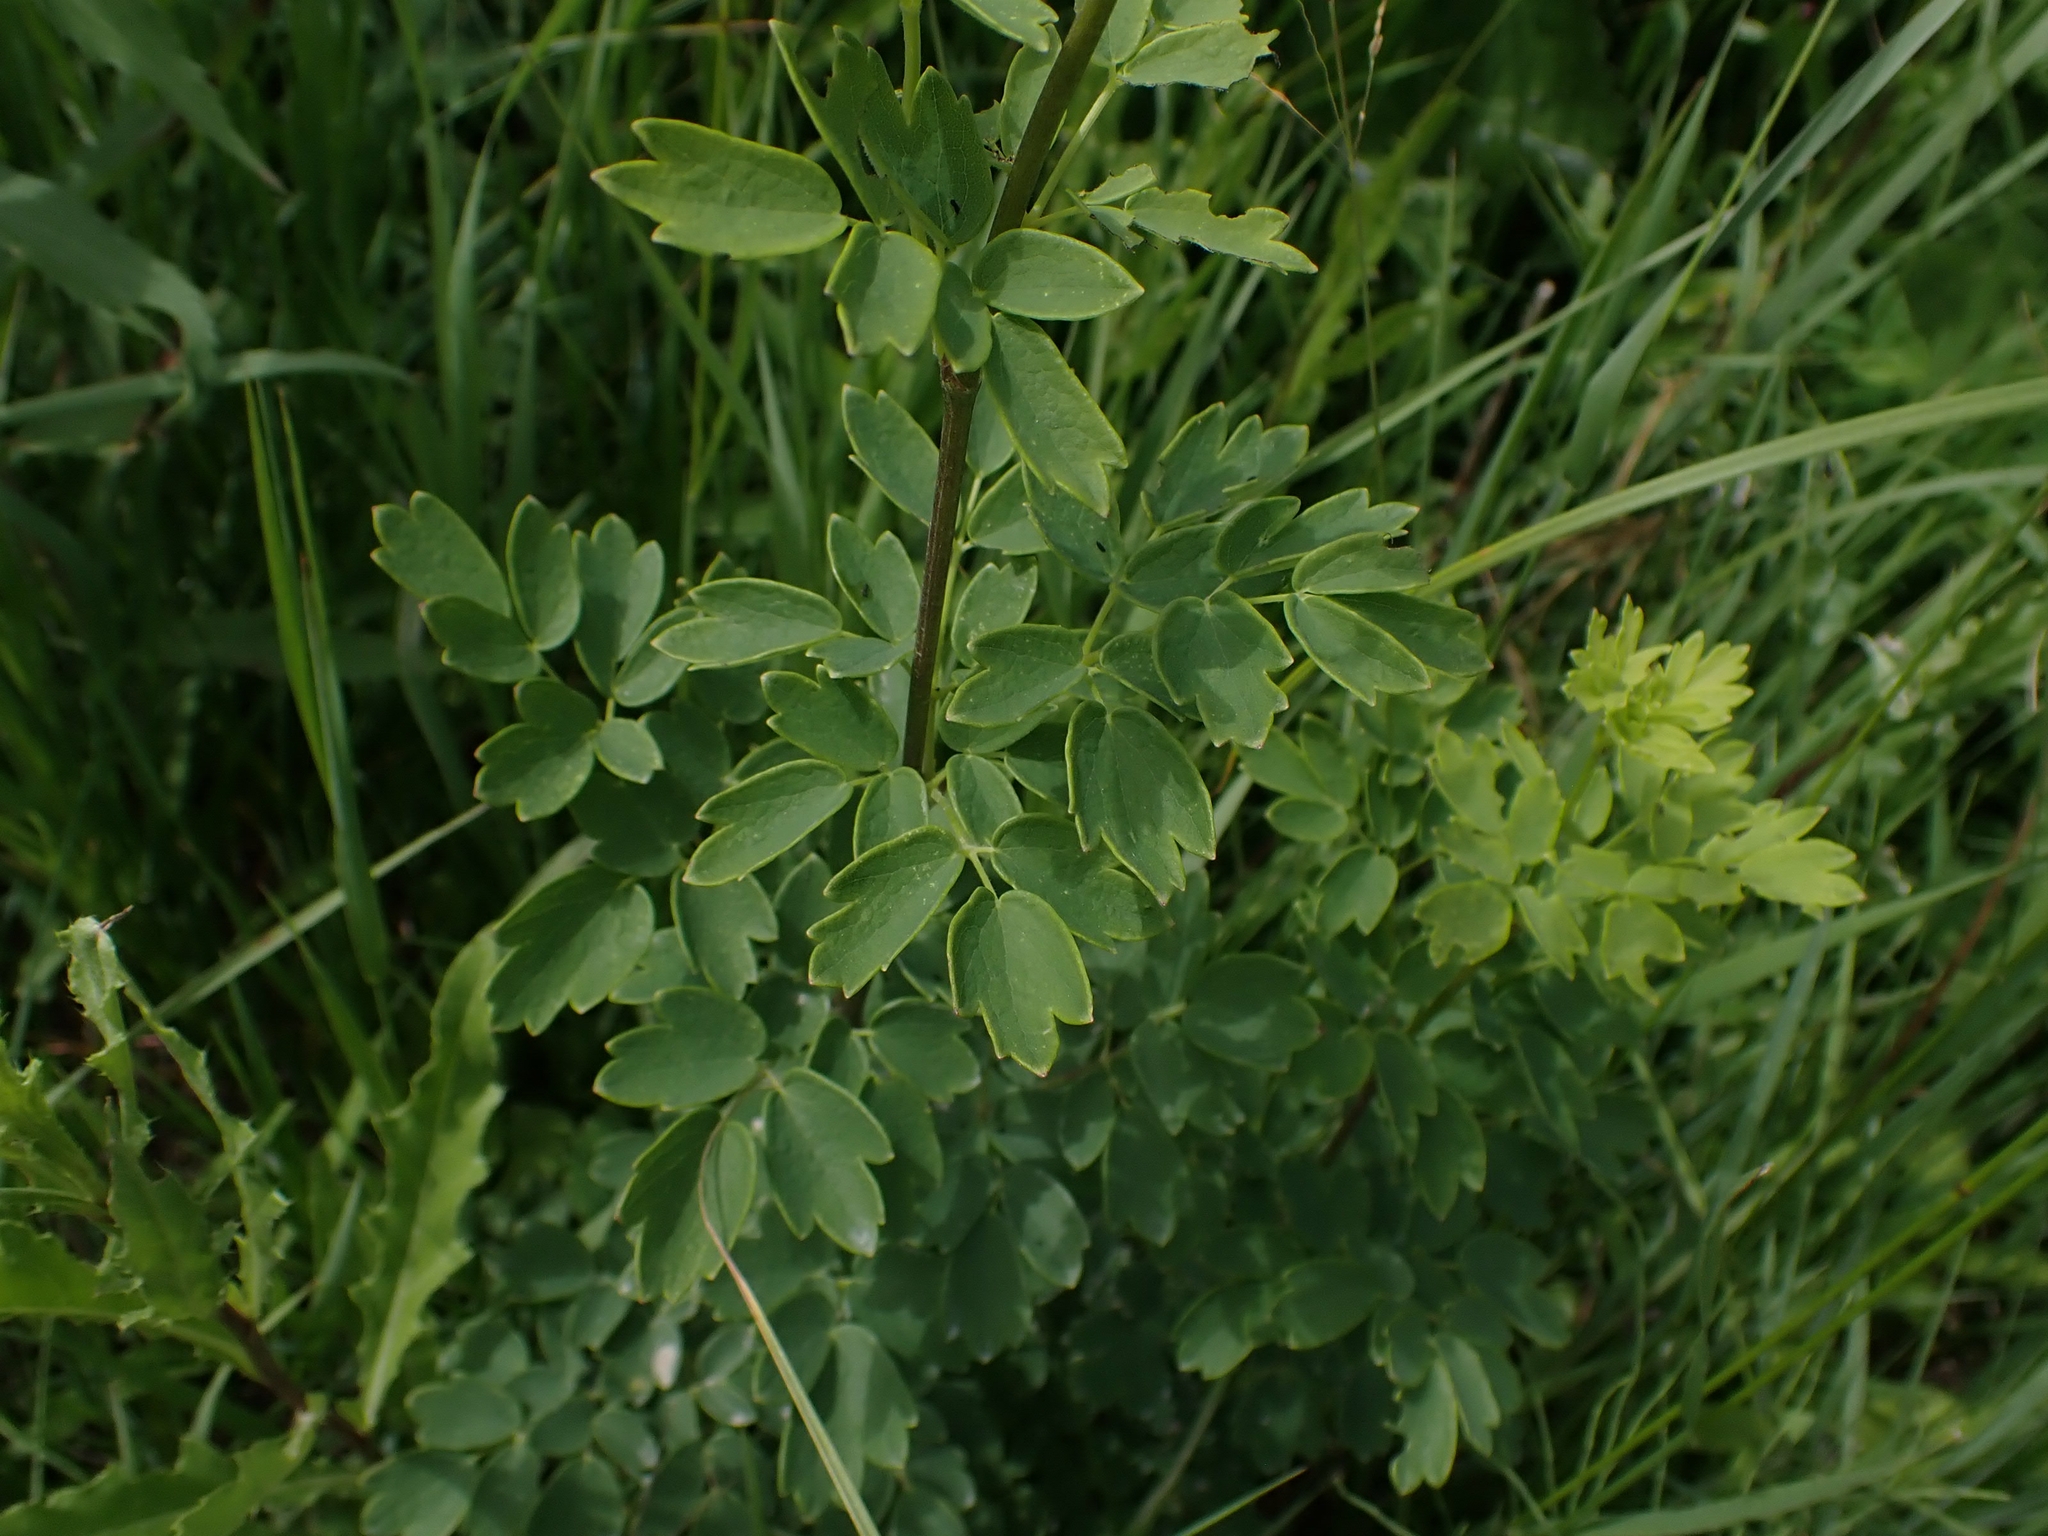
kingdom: Plantae
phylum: Tracheophyta
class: Magnoliopsida
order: Ranunculales
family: Ranunculaceae
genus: Thalictrum
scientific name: Thalictrum dasycarpum
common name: Purple meadow-rue
